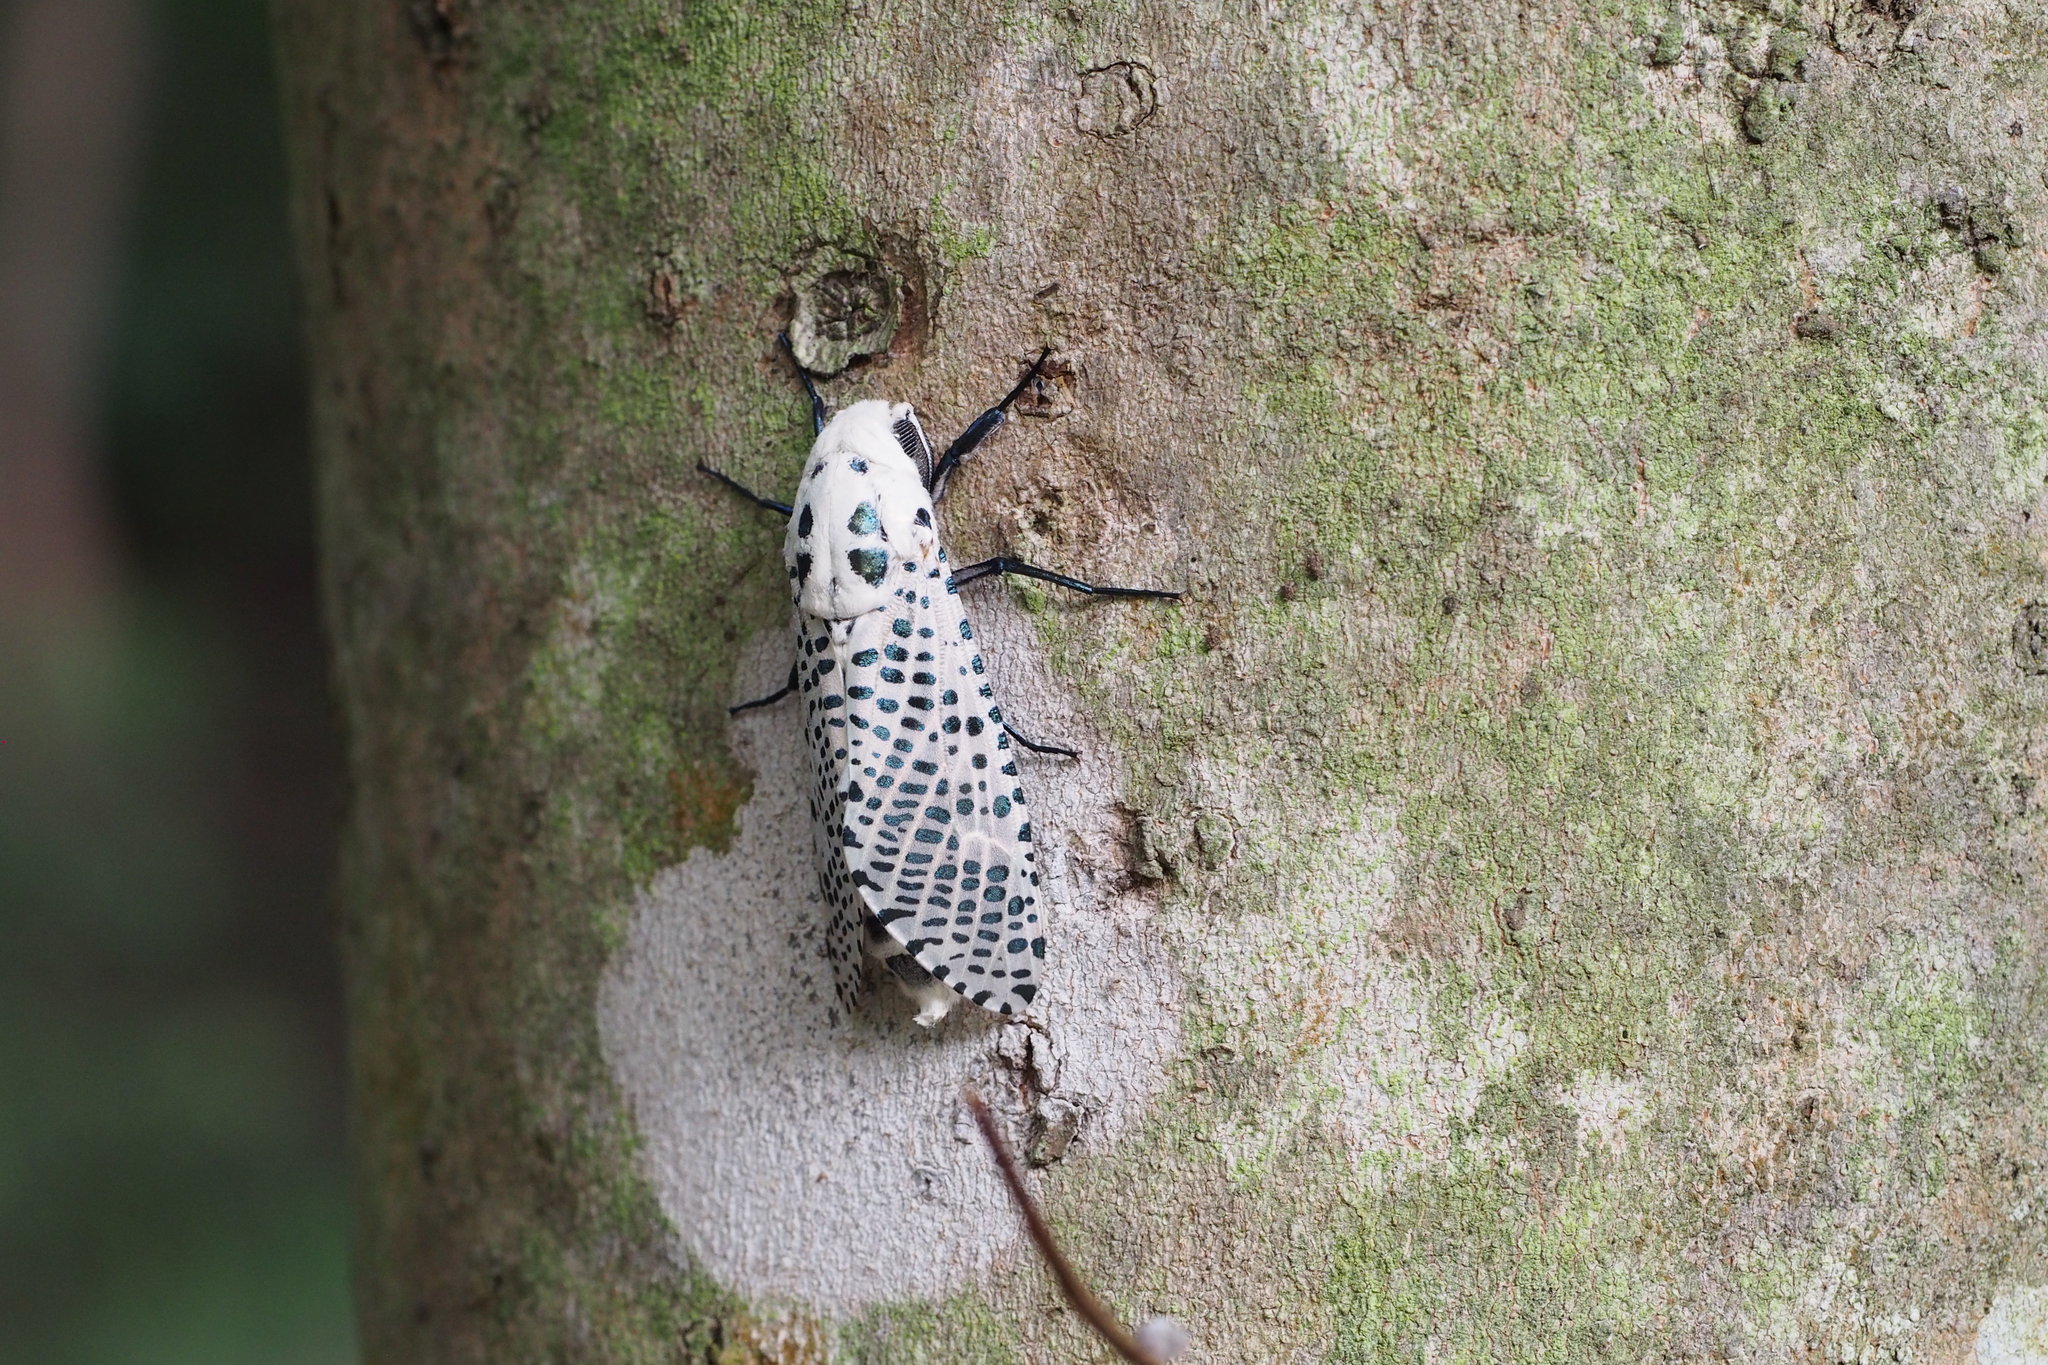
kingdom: Animalia
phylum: Arthropoda
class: Insecta
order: Lepidoptera
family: Cossidae
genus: Zeuzera
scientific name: Zeuzera multistrigata
